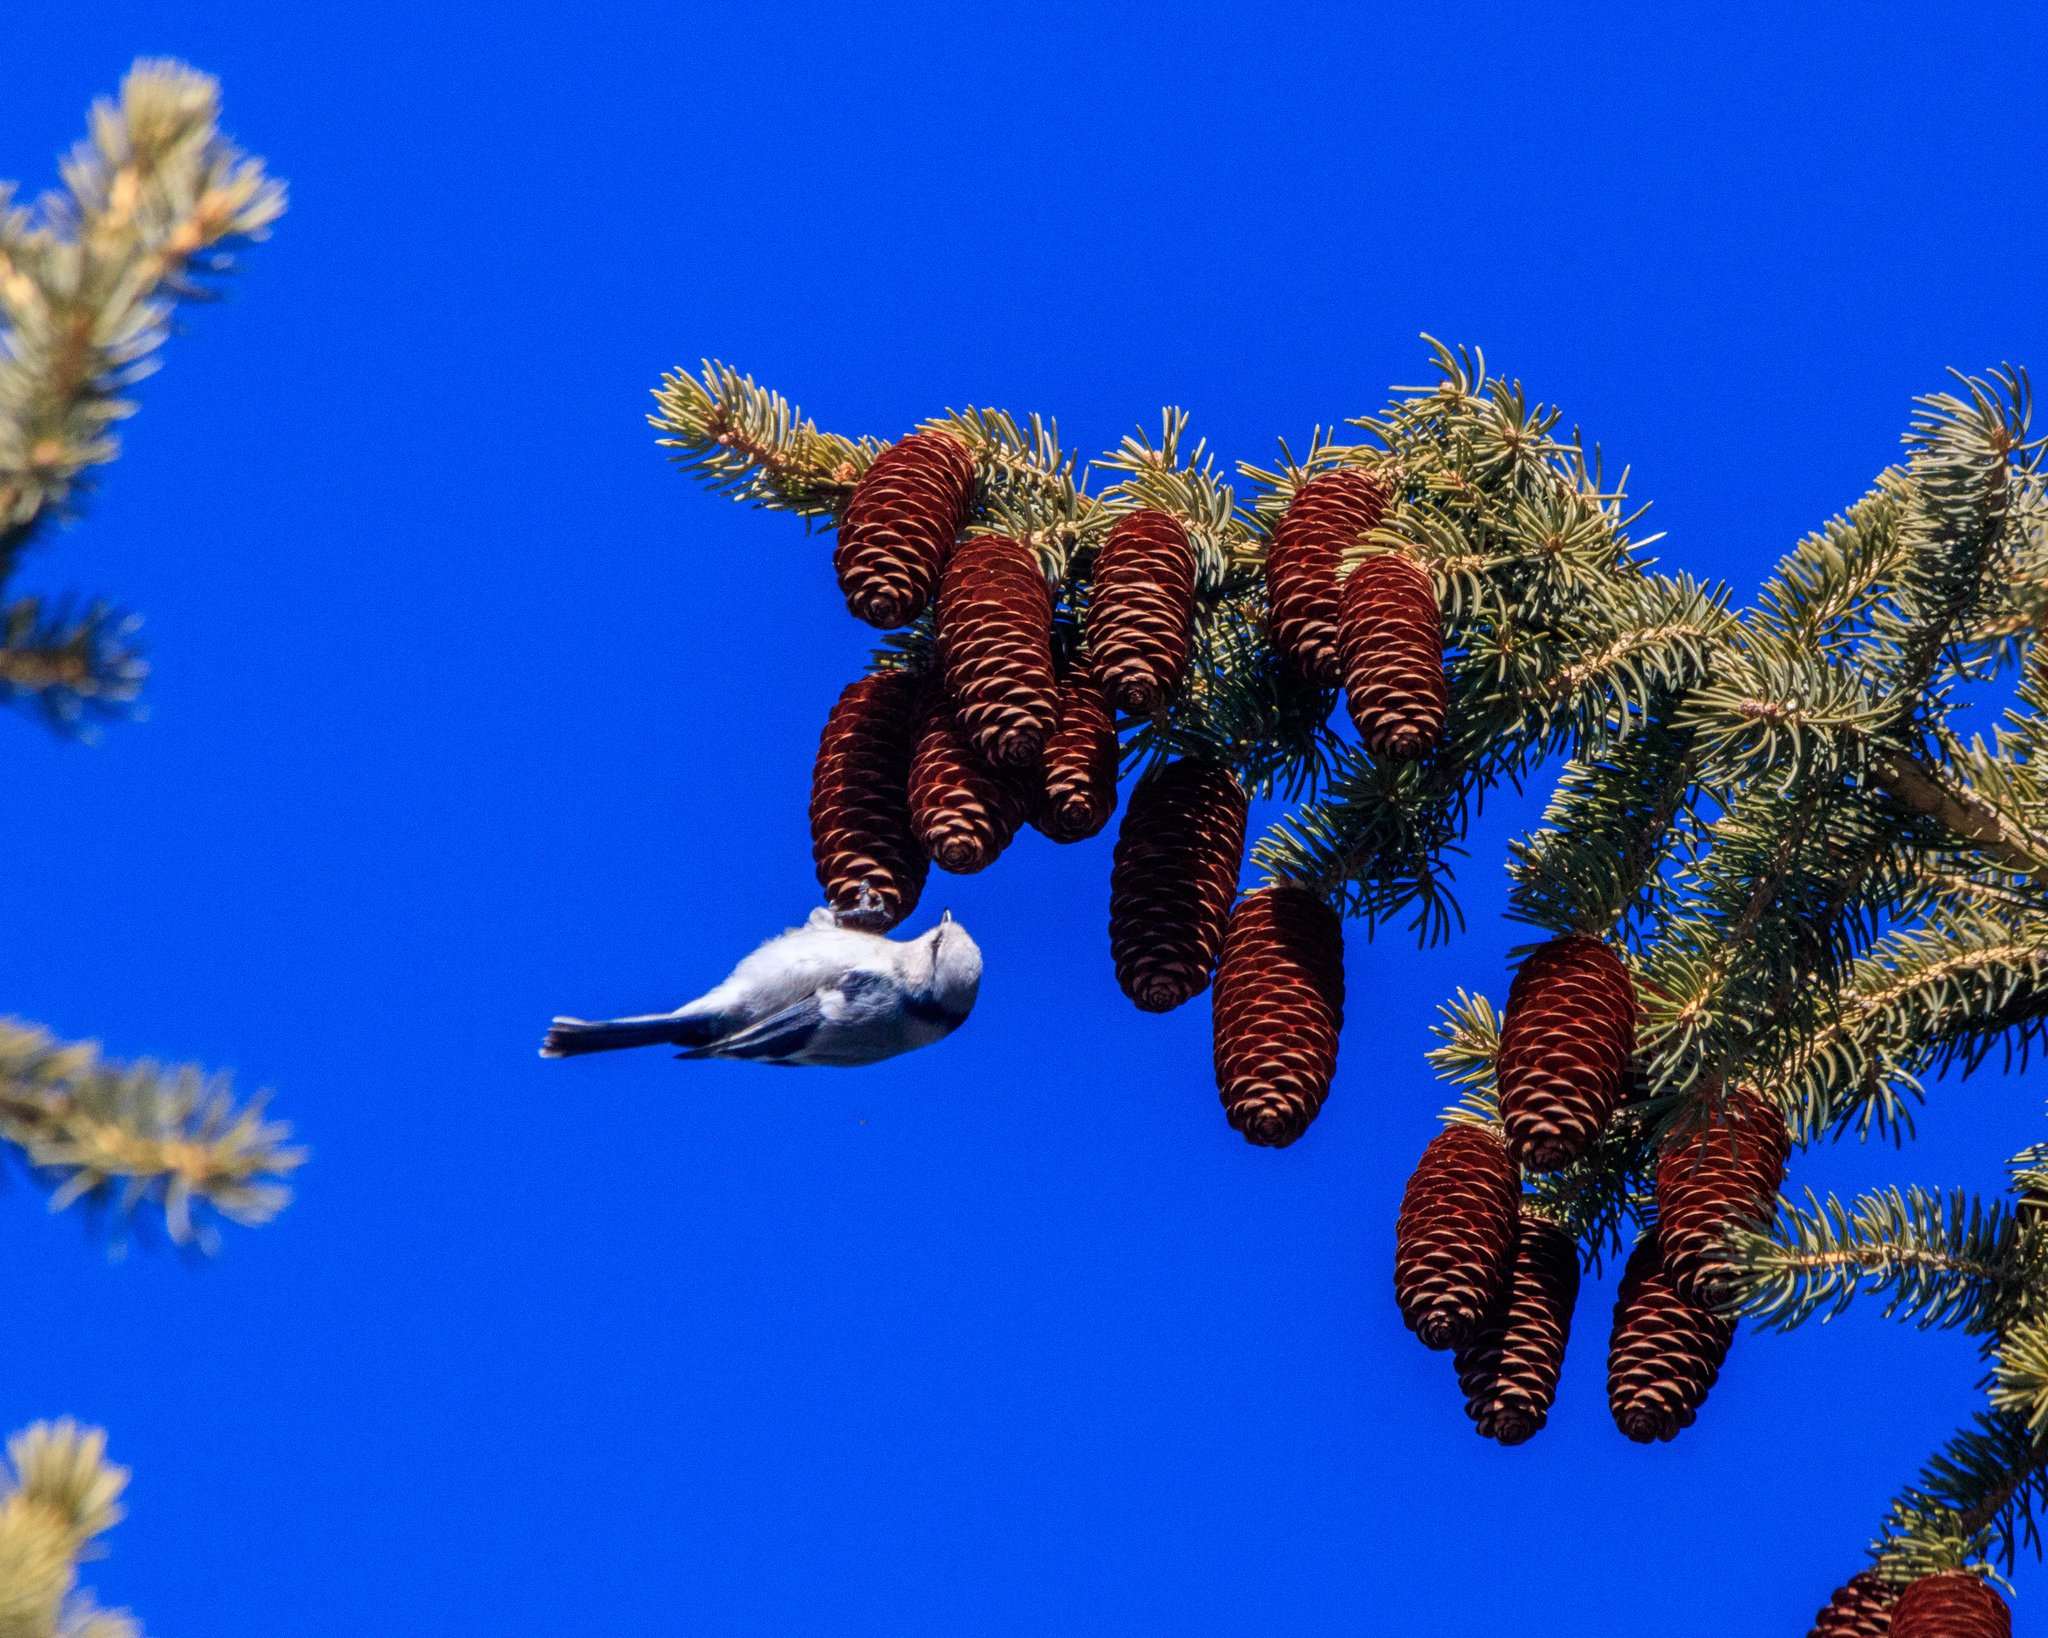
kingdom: Animalia
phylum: Chordata
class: Aves
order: Passeriformes
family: Paridae
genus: Cyanistes
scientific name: Cyanistes cyanus
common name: Azure tit
